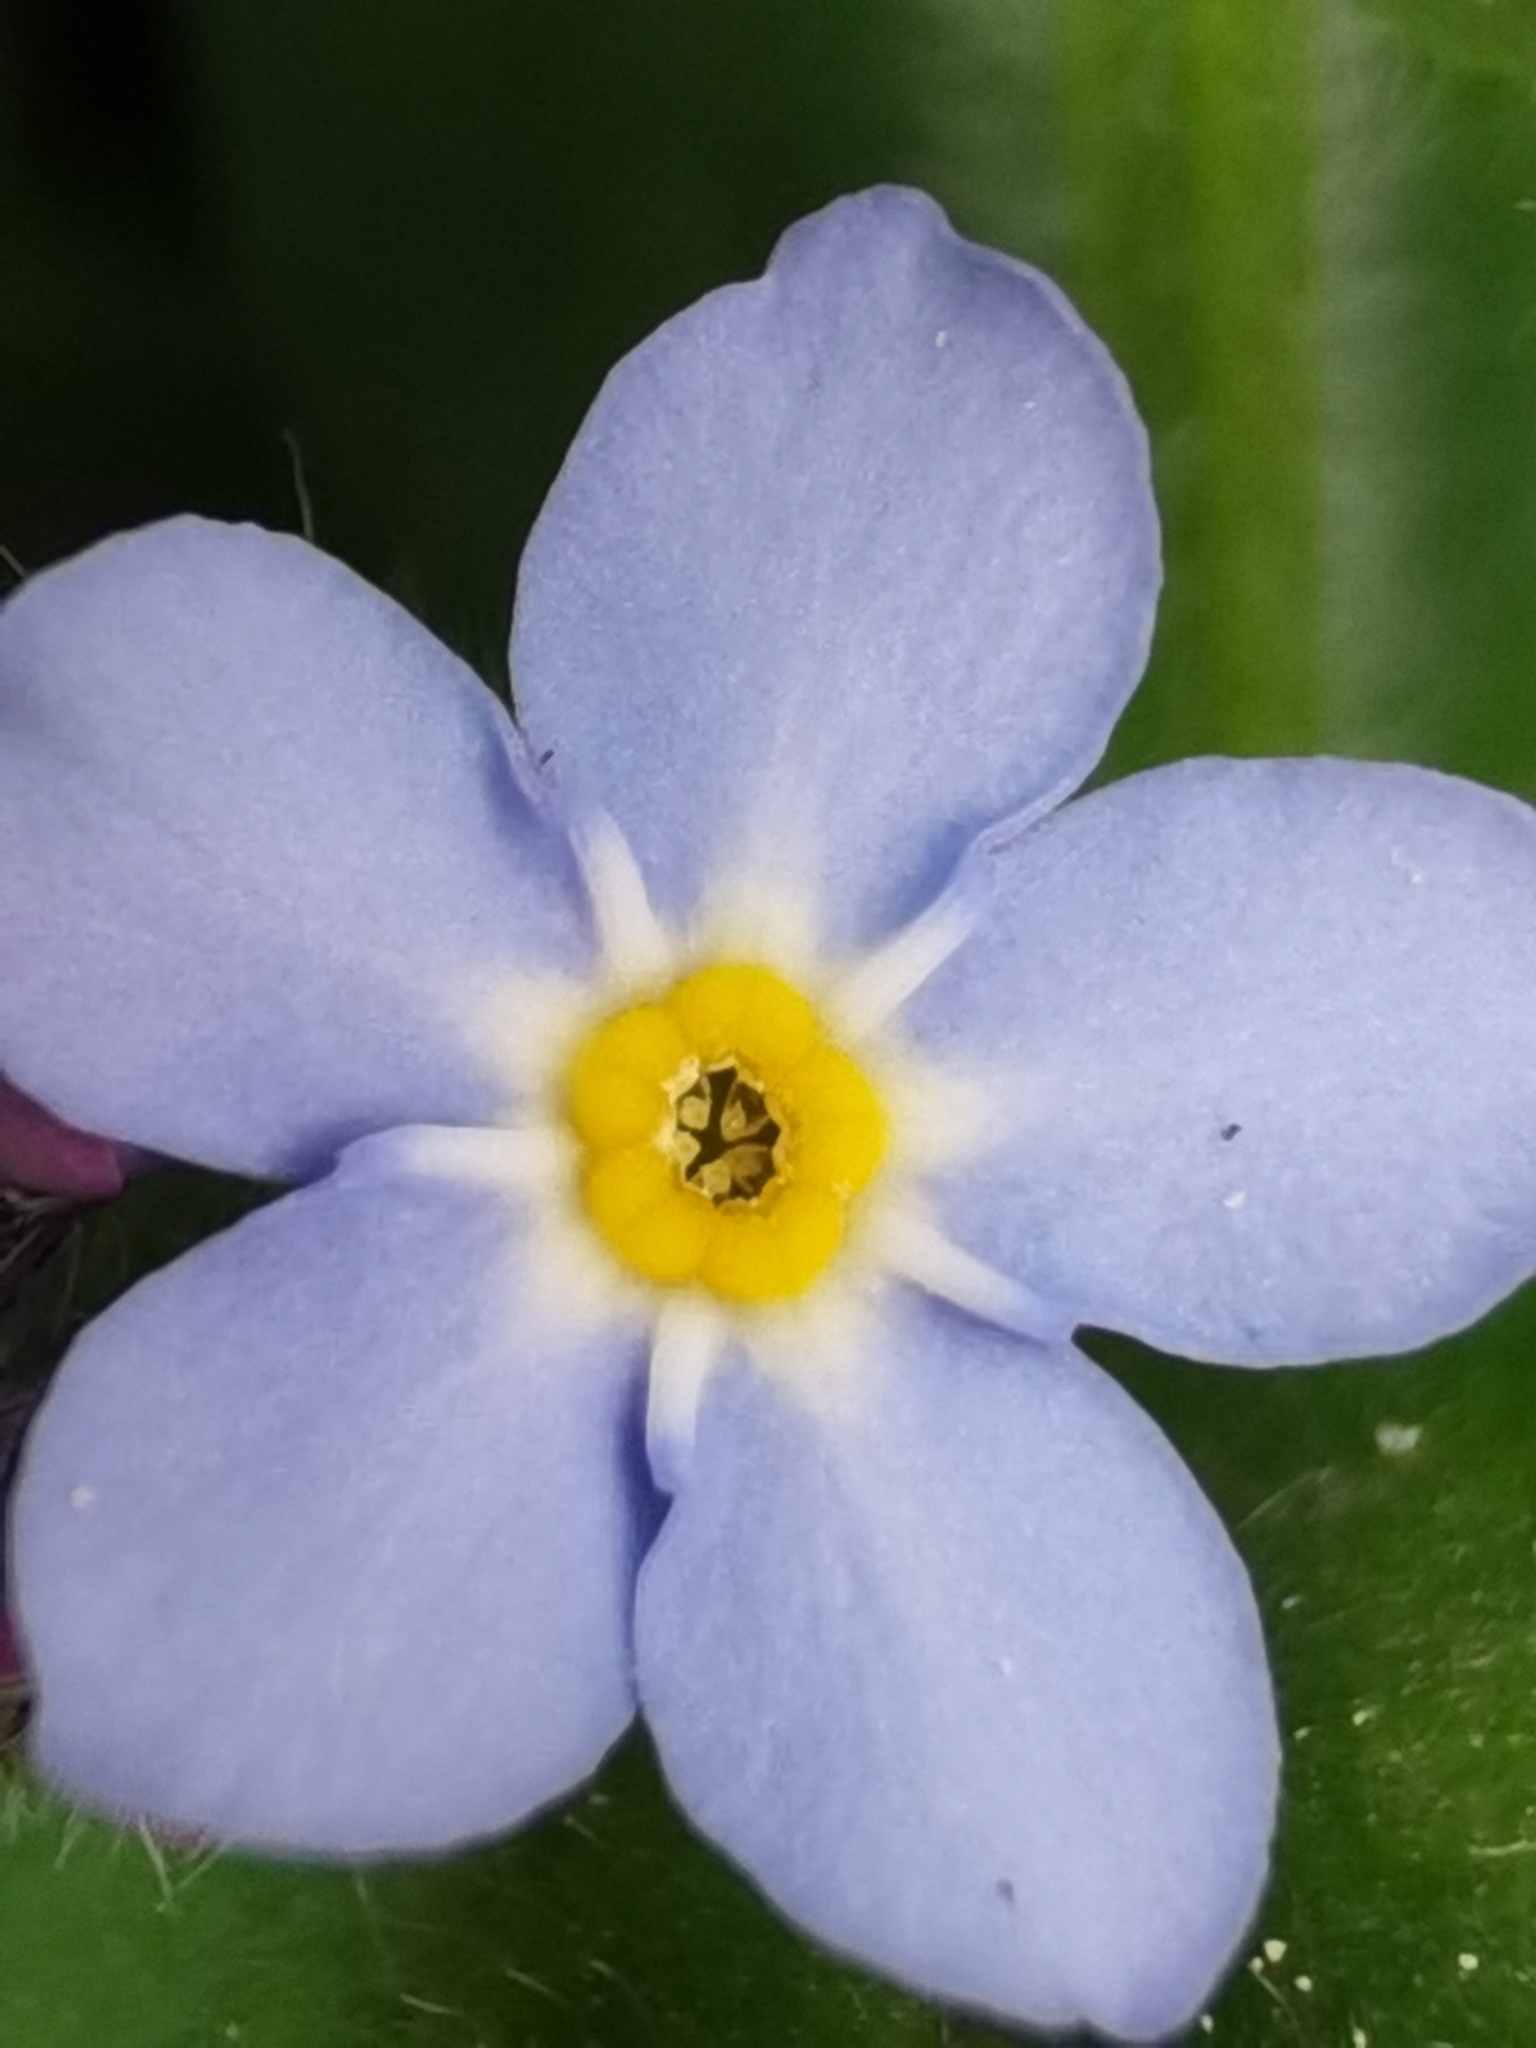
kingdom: Plantae
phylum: Tracheophyta
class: Magnoliopsida
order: Boraginales
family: Boraginaceae
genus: Myosotis
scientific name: Myosotis sylvatica
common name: Wood forget-me-not
